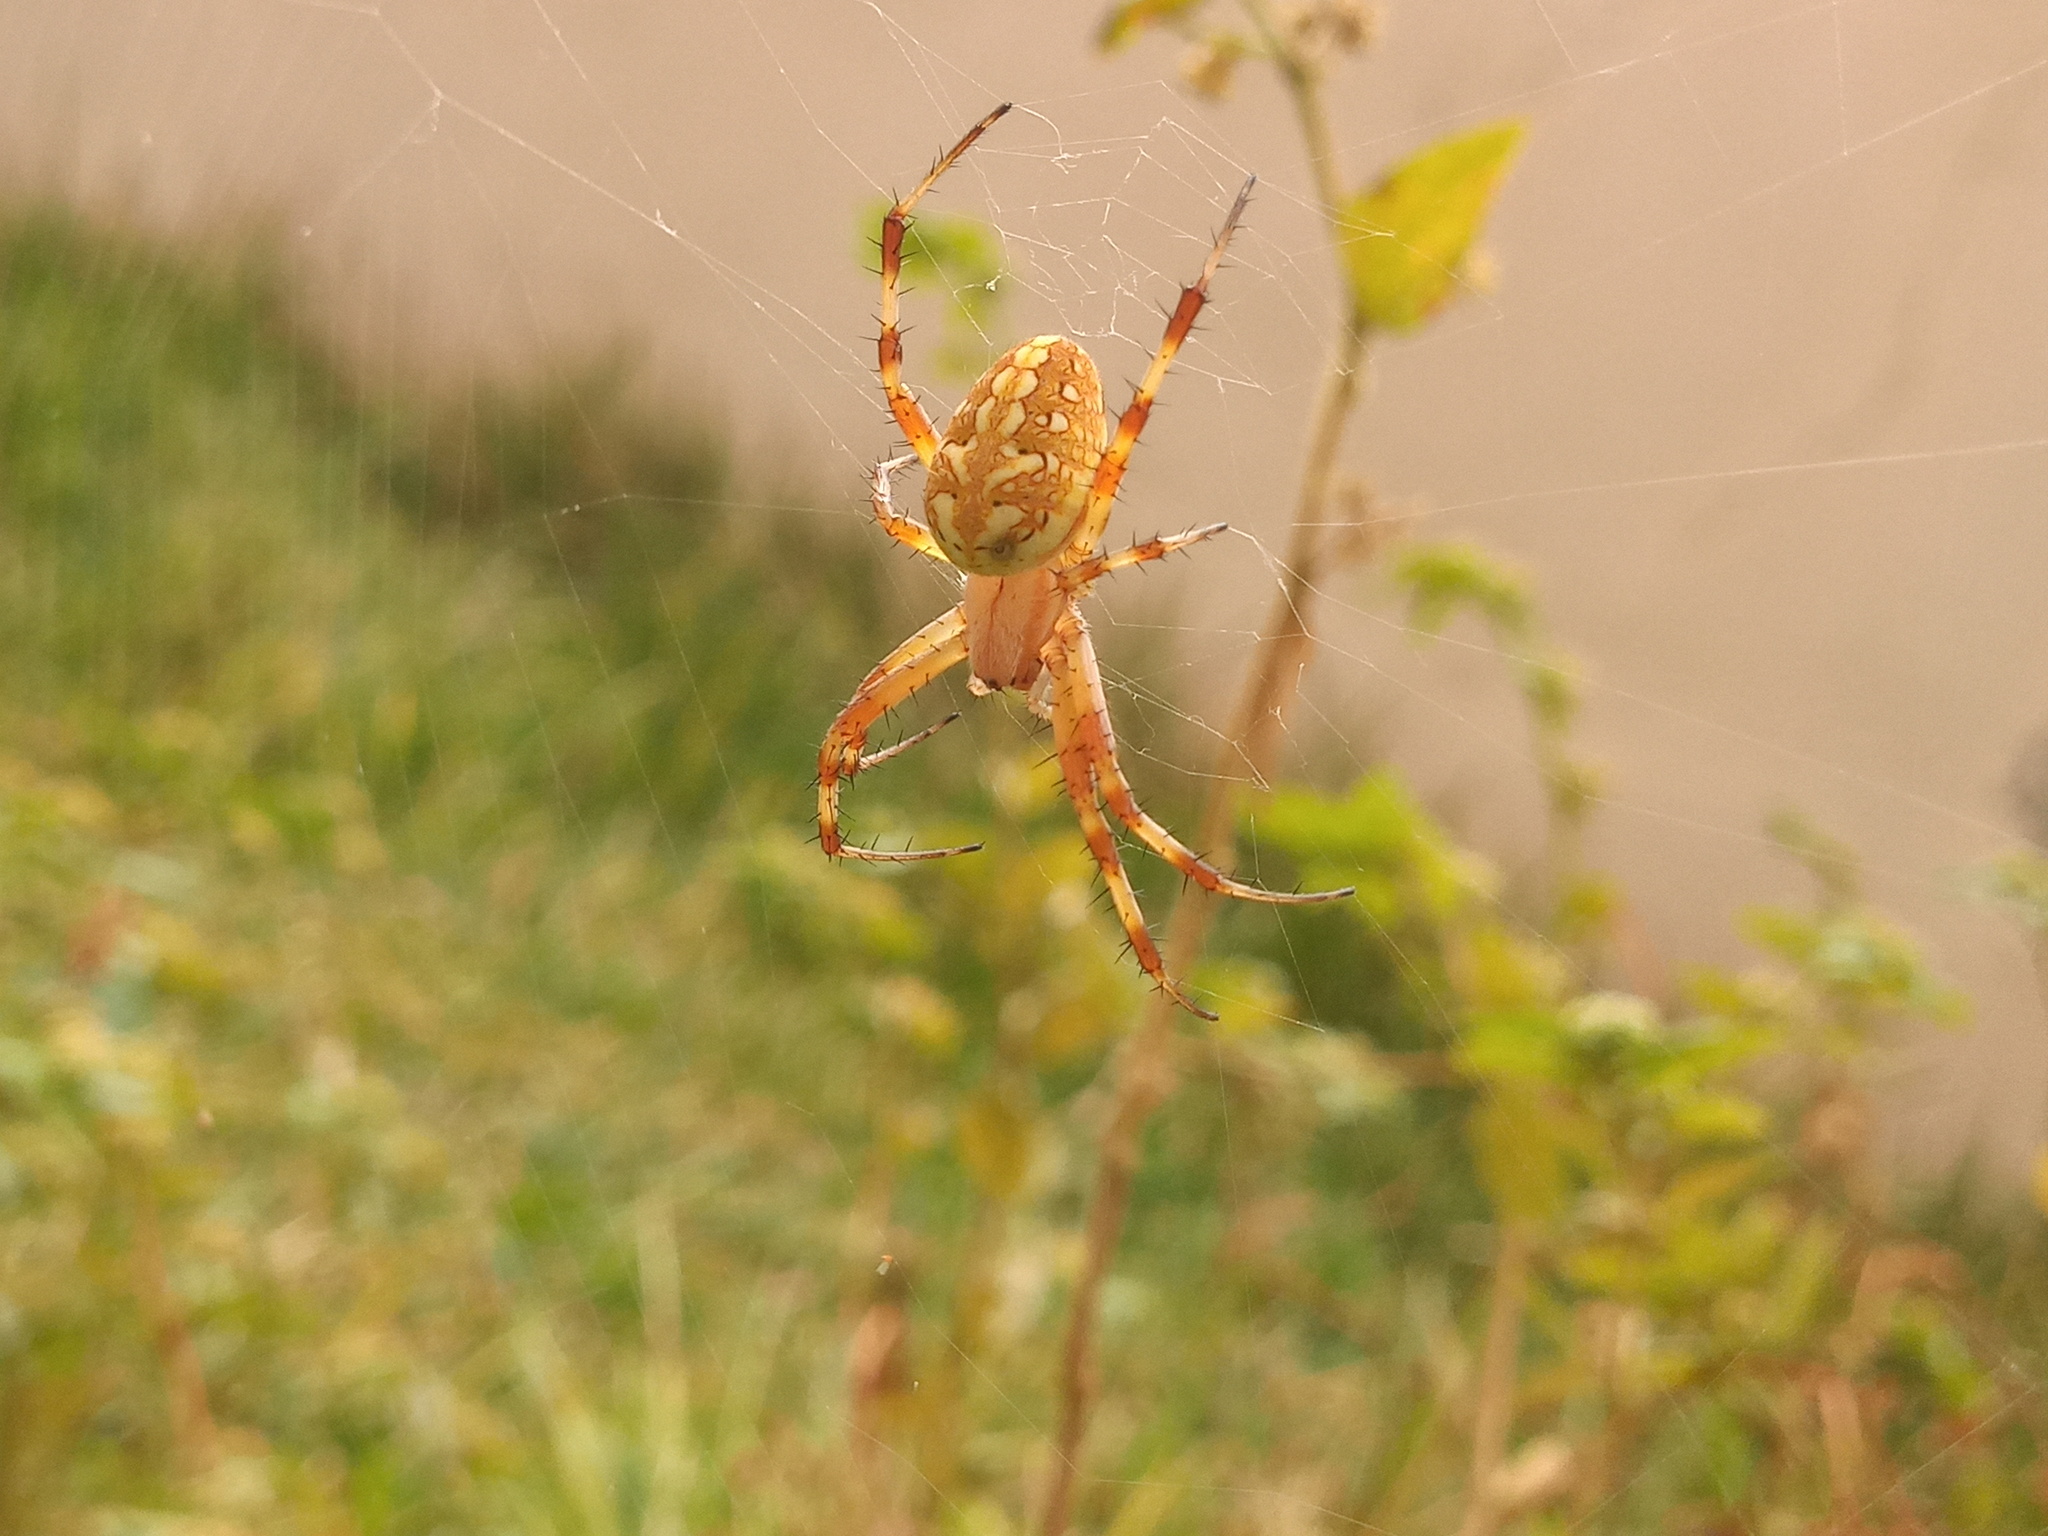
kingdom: Animalia
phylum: Arthropoda
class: Arachnida
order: Araneae
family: Araneidae
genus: Neoscona
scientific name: Neoscona oaxacensis
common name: Orb weavers
